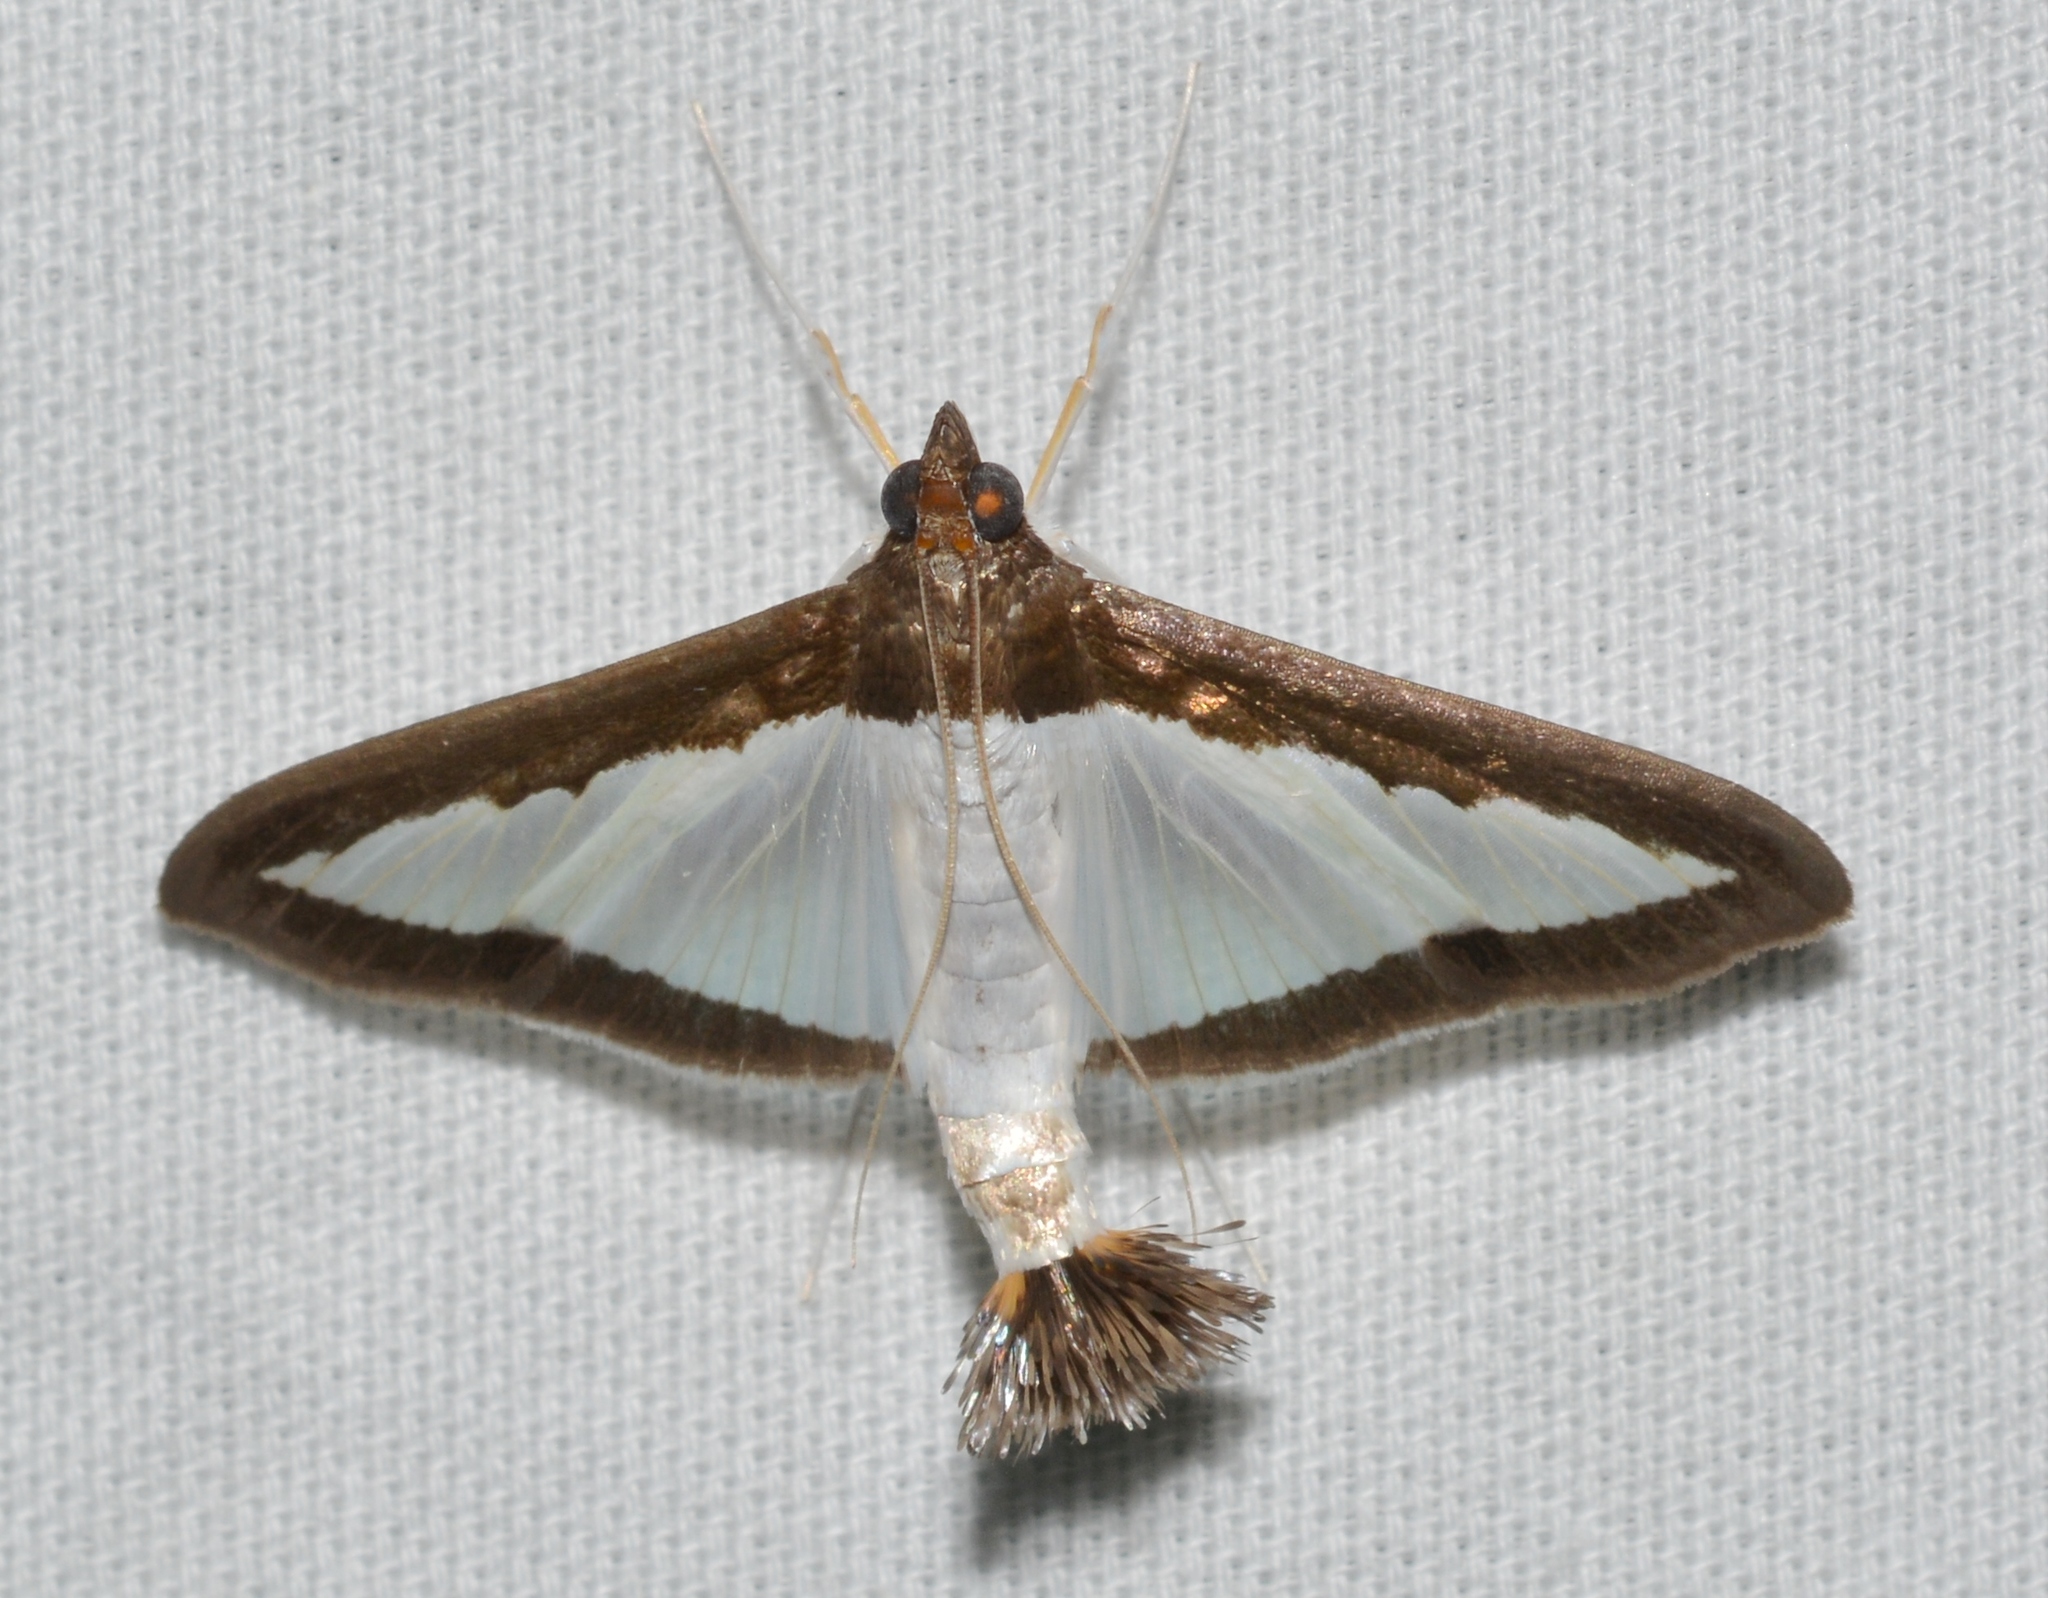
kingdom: Animalia
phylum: Arthropoda
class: Insecta
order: Lepidoptera
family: Crambidae
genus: Diaphania
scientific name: Diaphania hyalinata
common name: Melonworm
